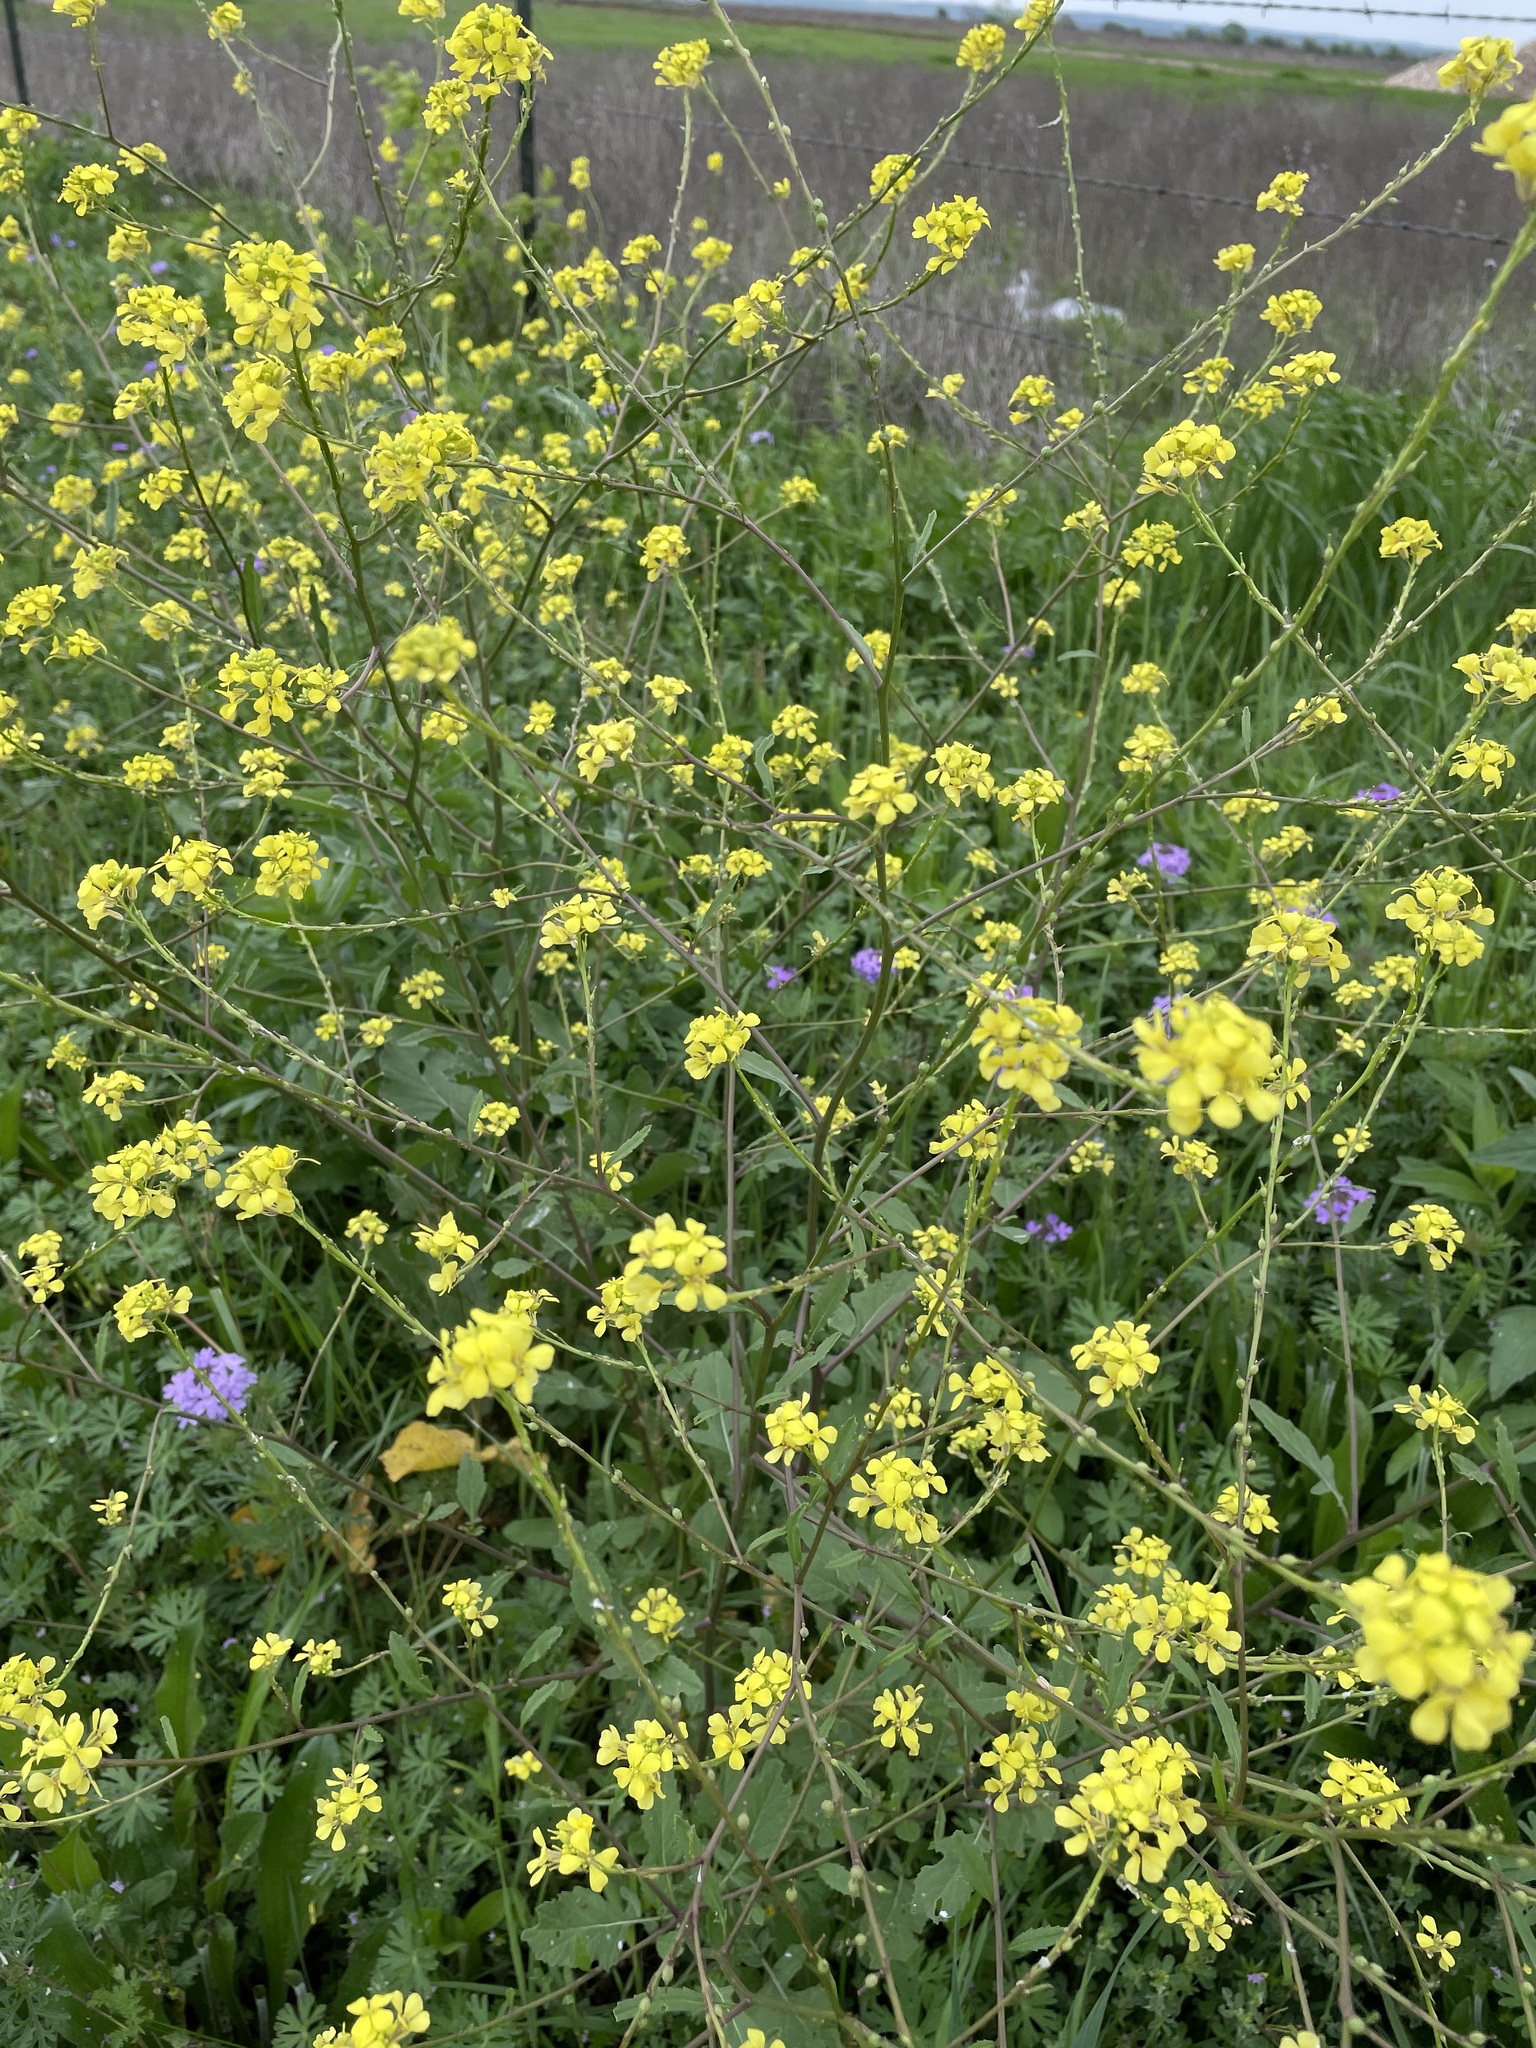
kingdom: Plantae
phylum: Tracheophyta
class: Magnoliopsida
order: Brassicales
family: Brassicaceae
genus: Rapistrum
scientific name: Rapistrum rugosum
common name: Annual bastardcabbage
